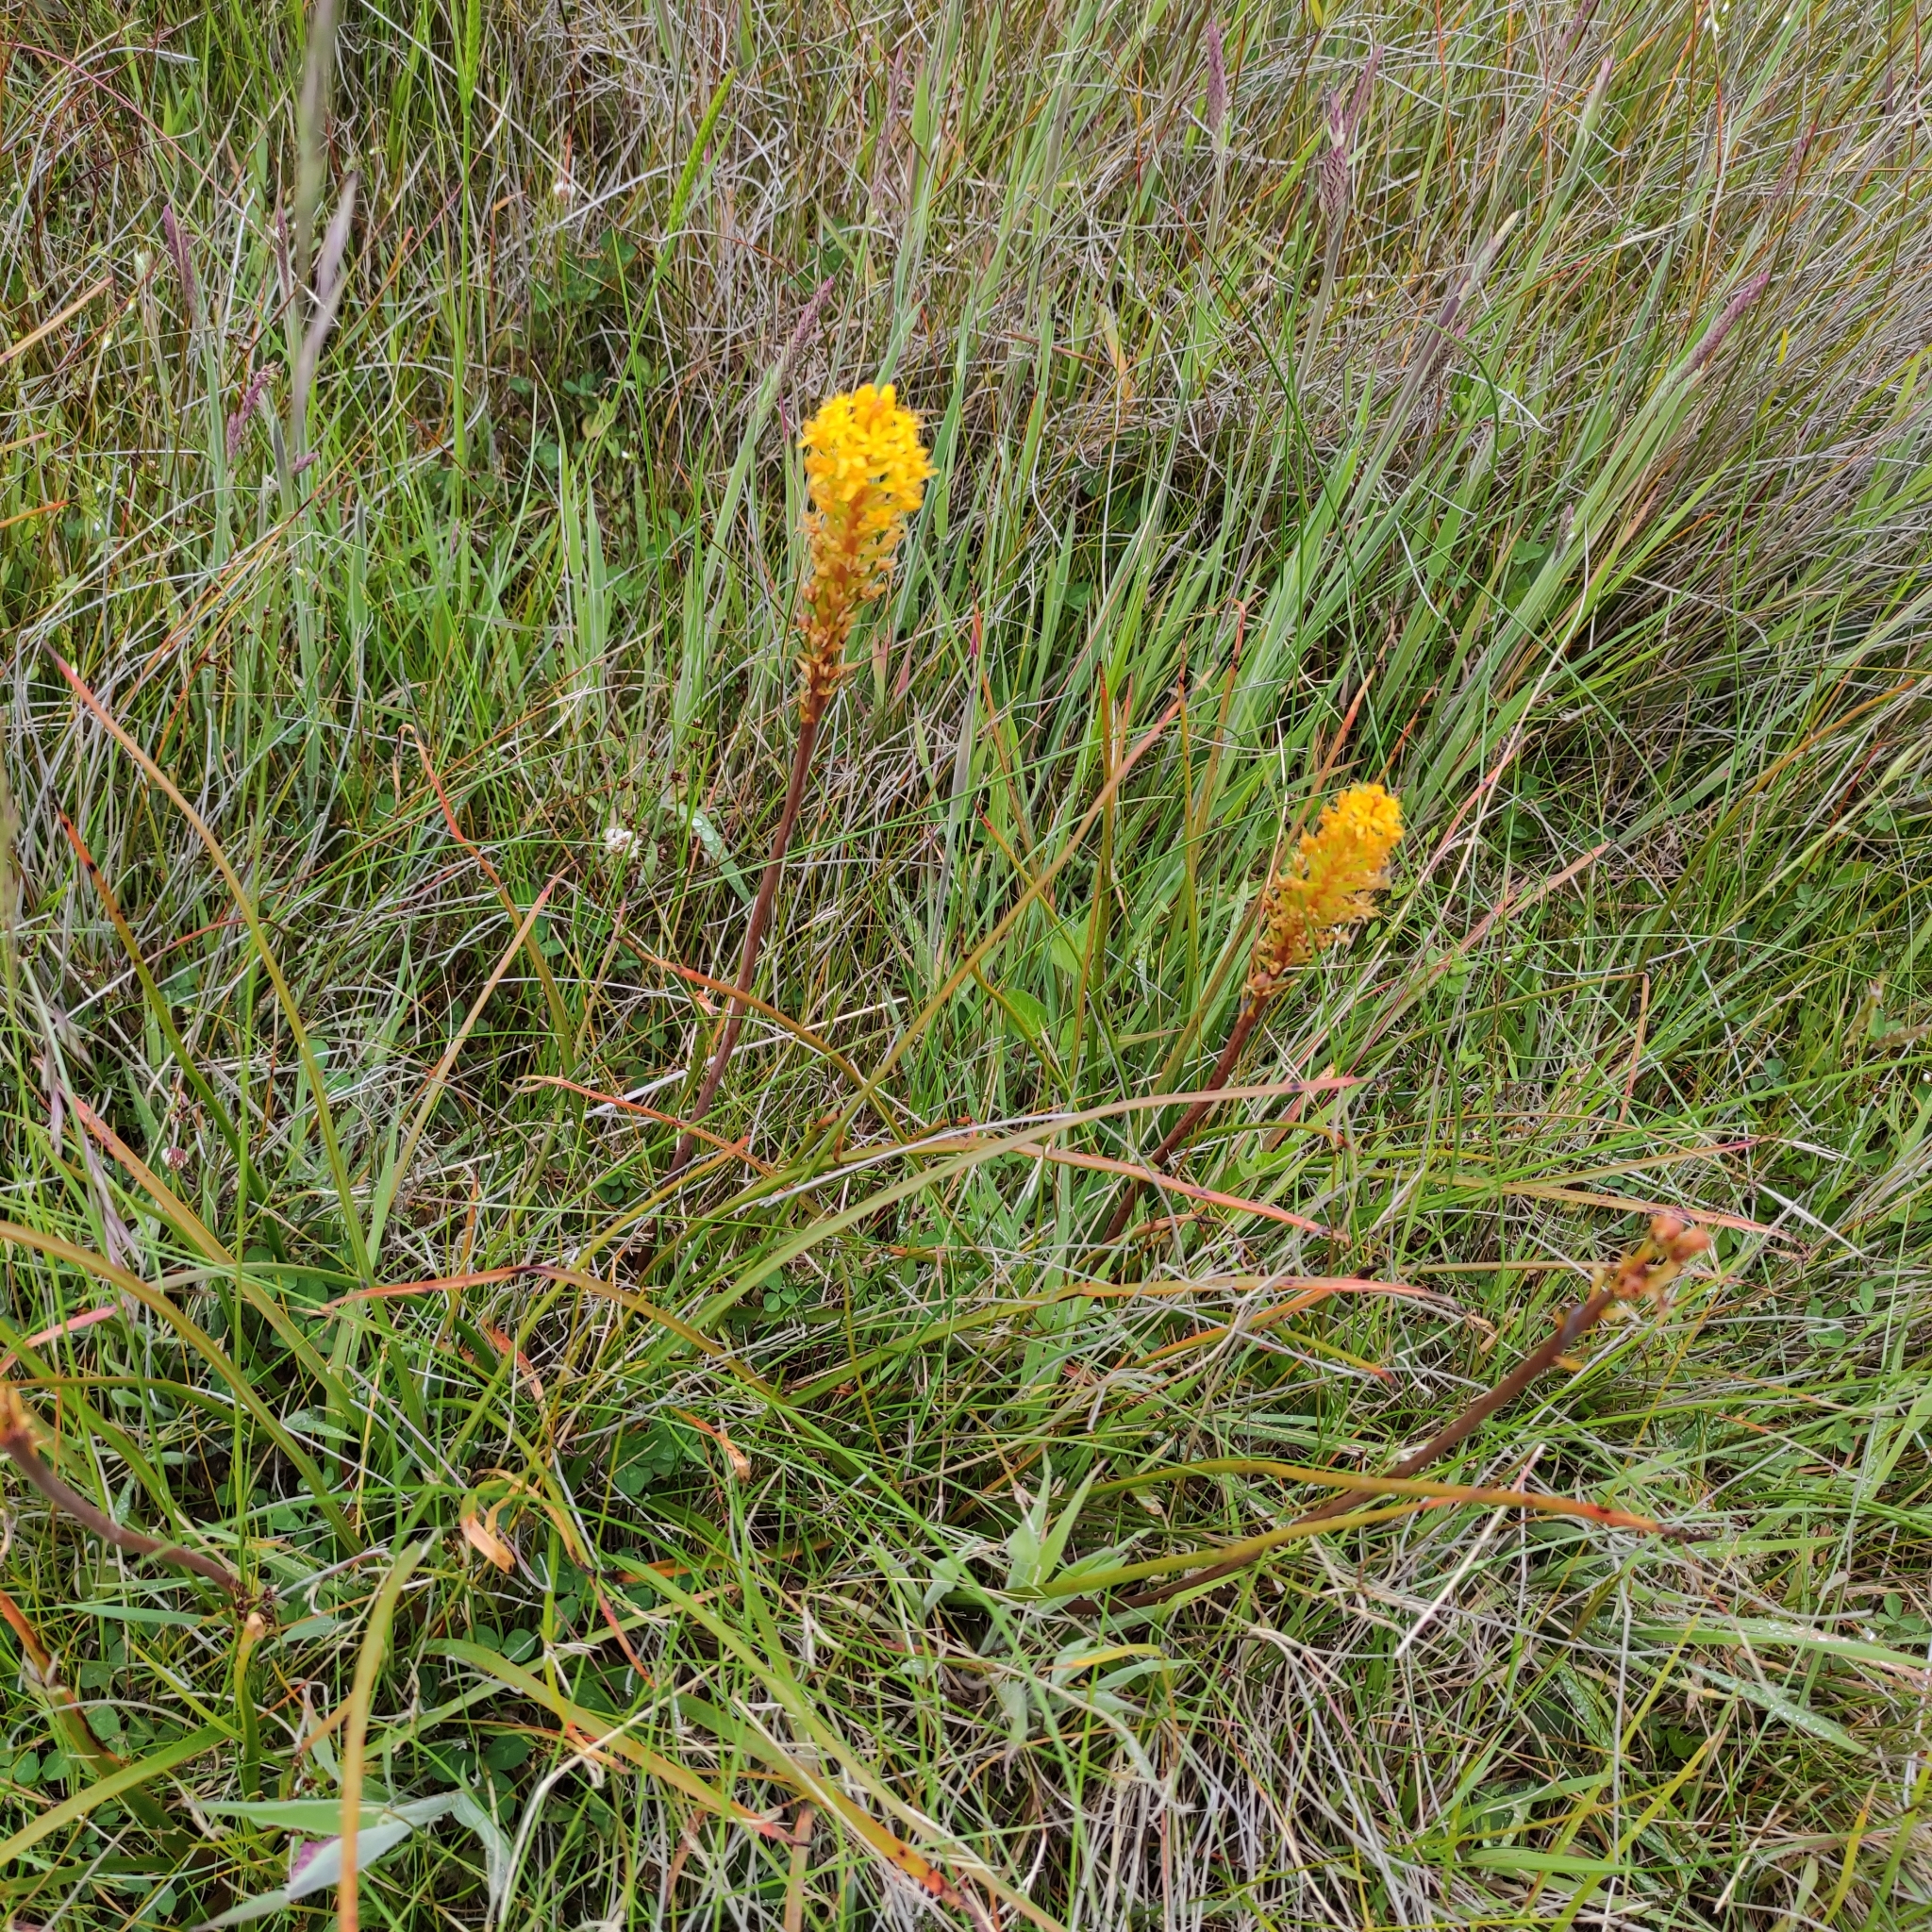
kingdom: Plantae
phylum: Tracheophyta
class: Liliopsida
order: Asparagales
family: Asphodelaceae
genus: Bulbinella
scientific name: Bulbinella angustifolia
